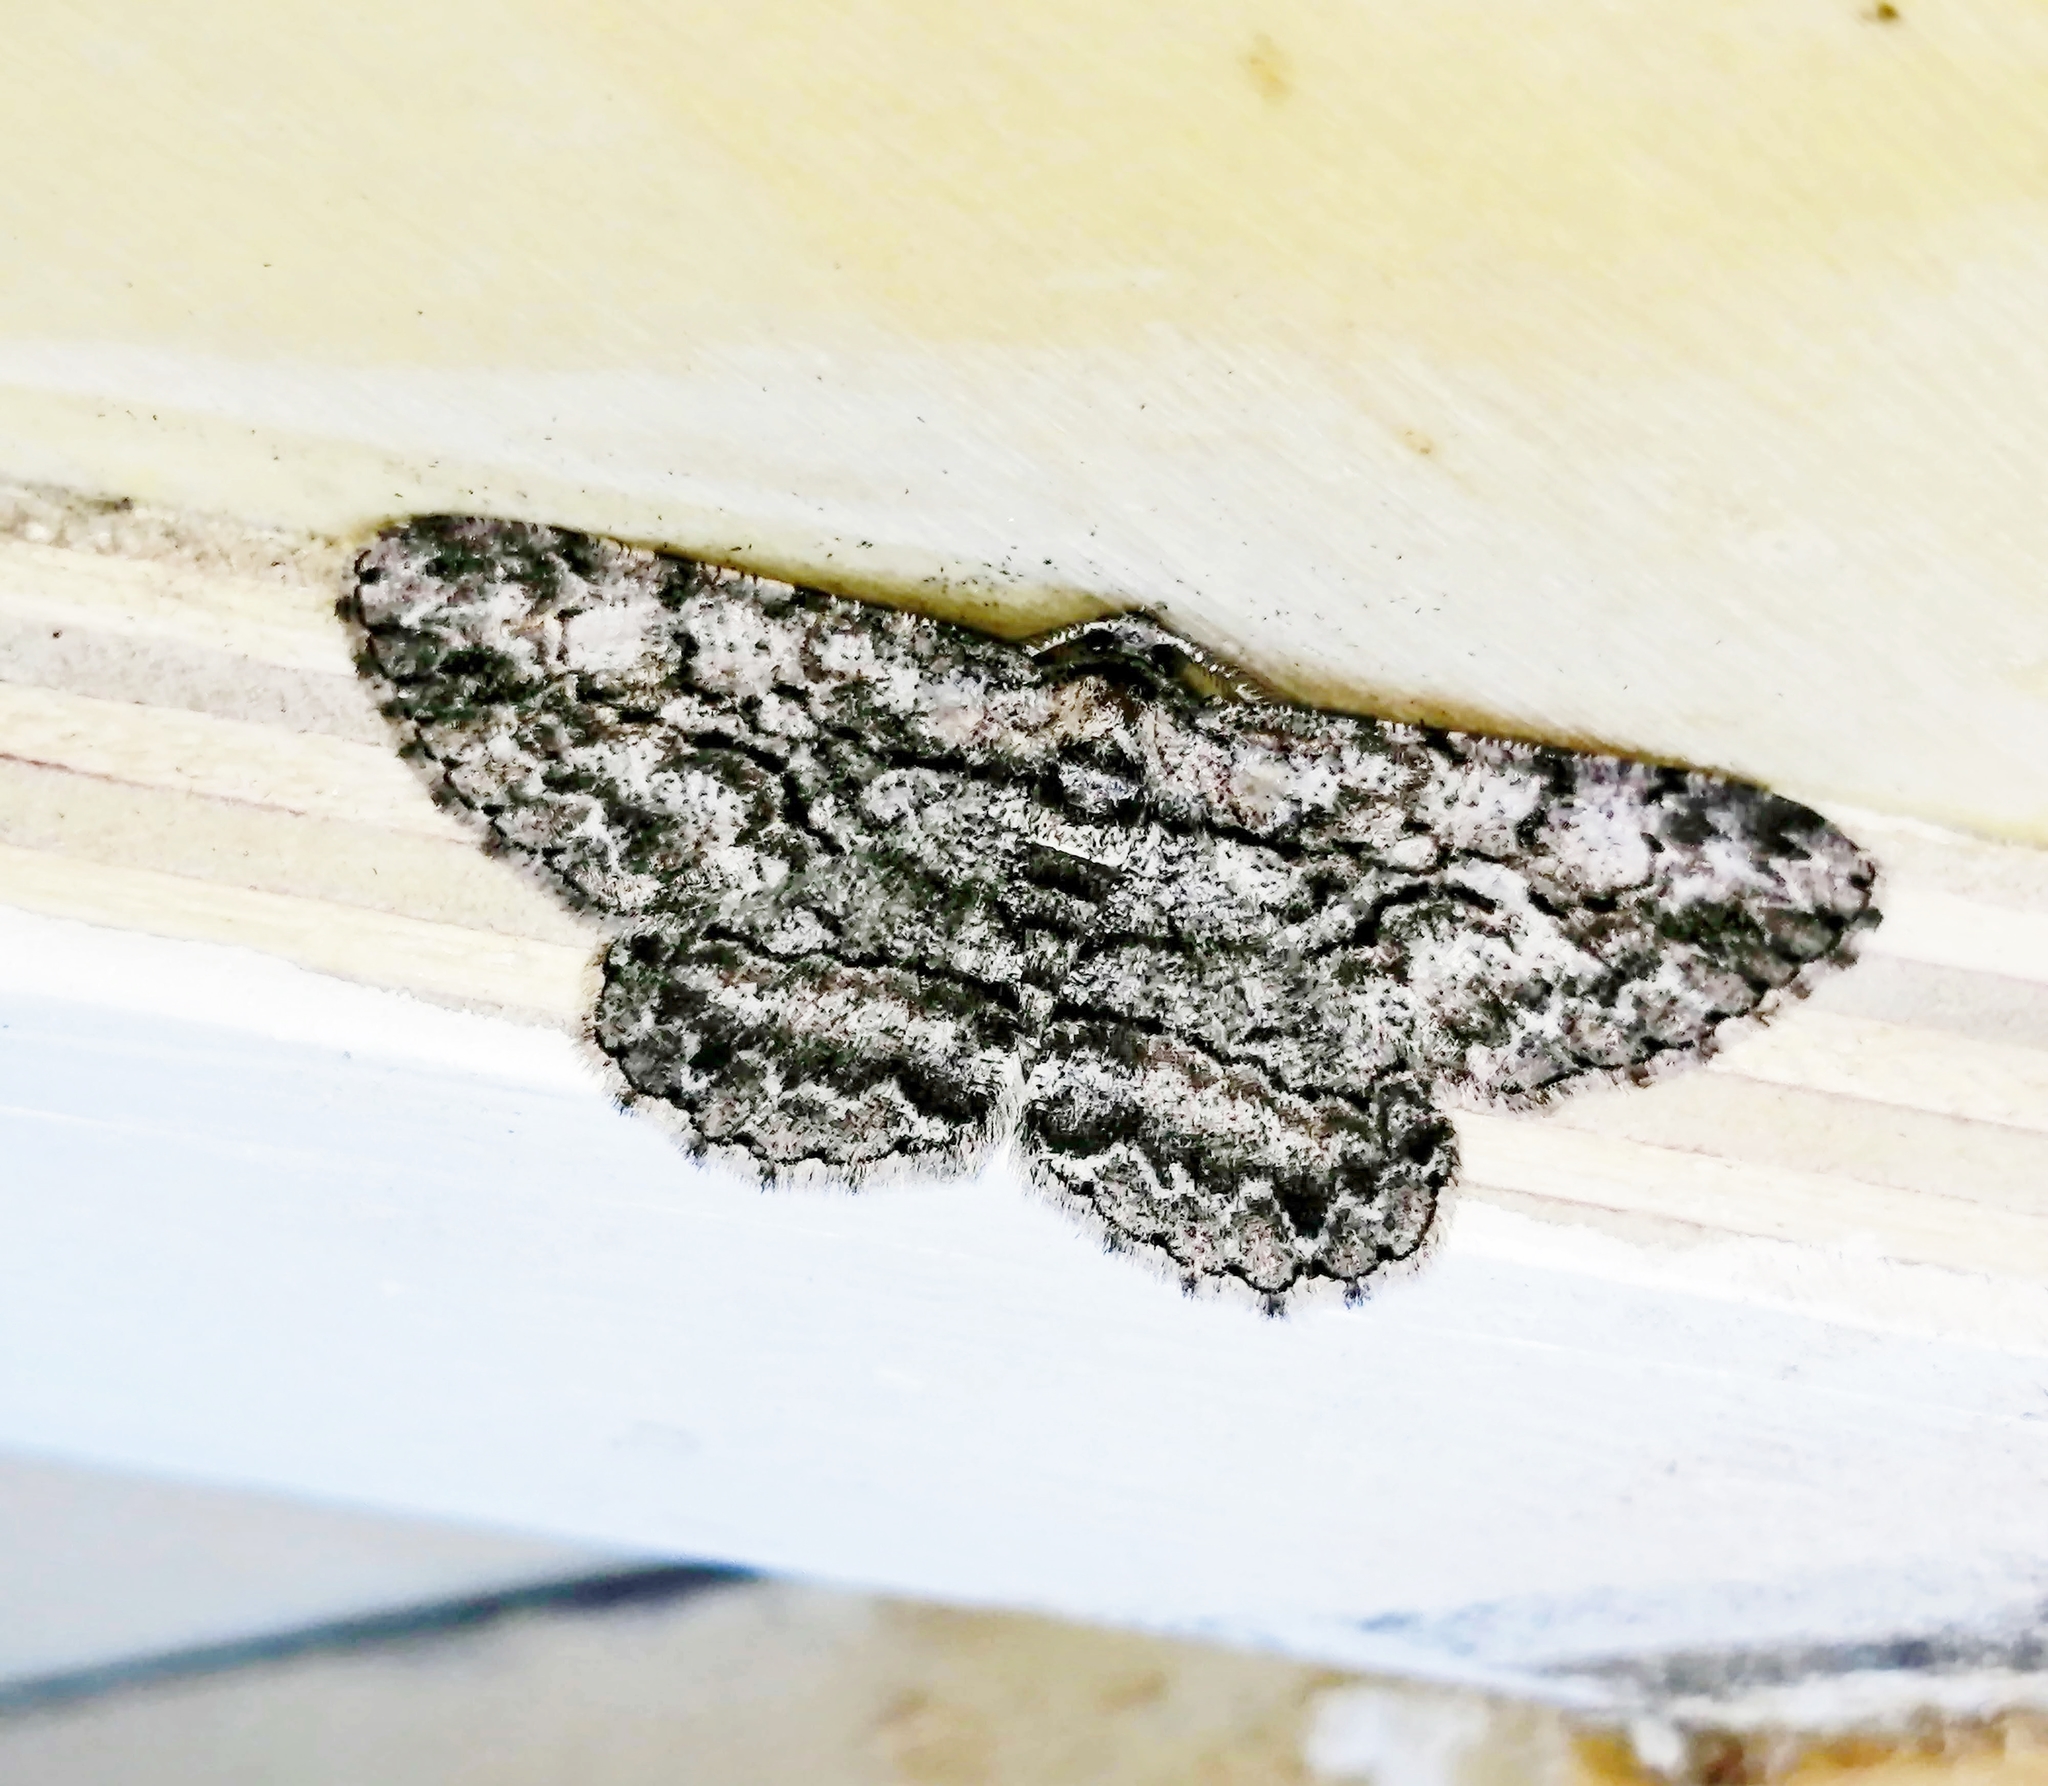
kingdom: Animalia
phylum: Arthropoda
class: Insecta
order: Lepidoptera
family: Geometridae
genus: Anavitrinella
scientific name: Anavitrinella pampinaria
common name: Common gray
